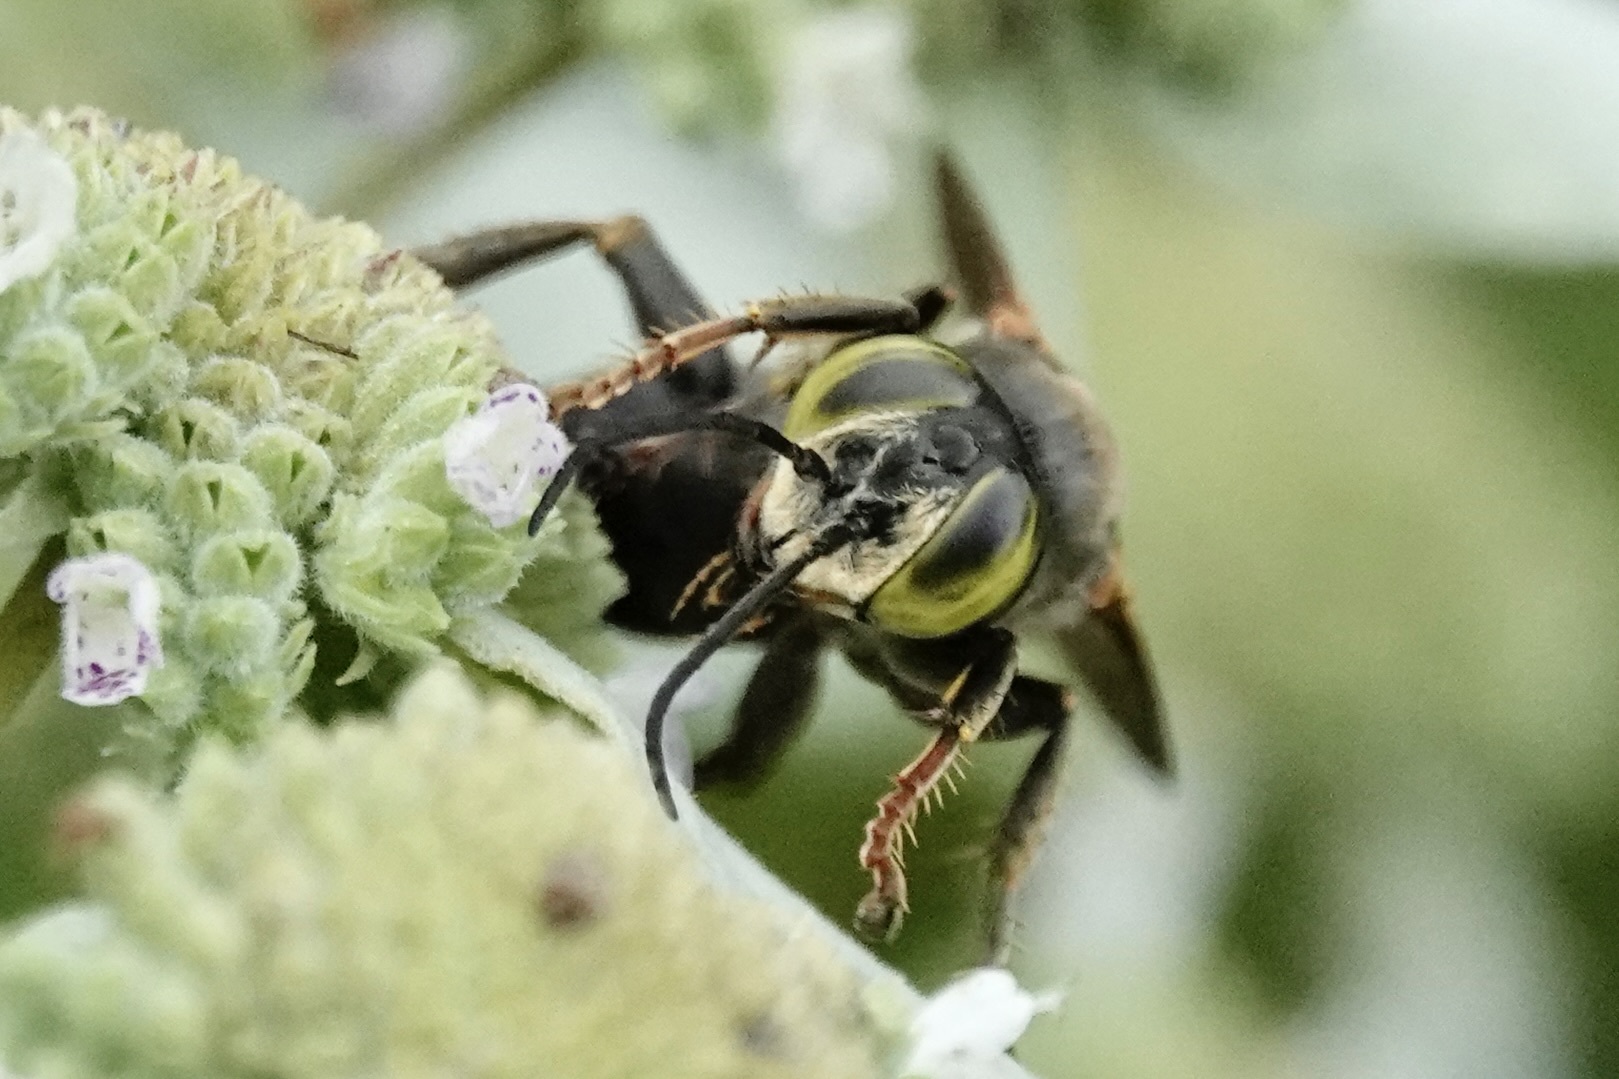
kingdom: Animalia
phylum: Arthropoda
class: Insecta
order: Hymenoptera
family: Crabronidae
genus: Tachytes
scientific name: Tachytes guatemalensis
